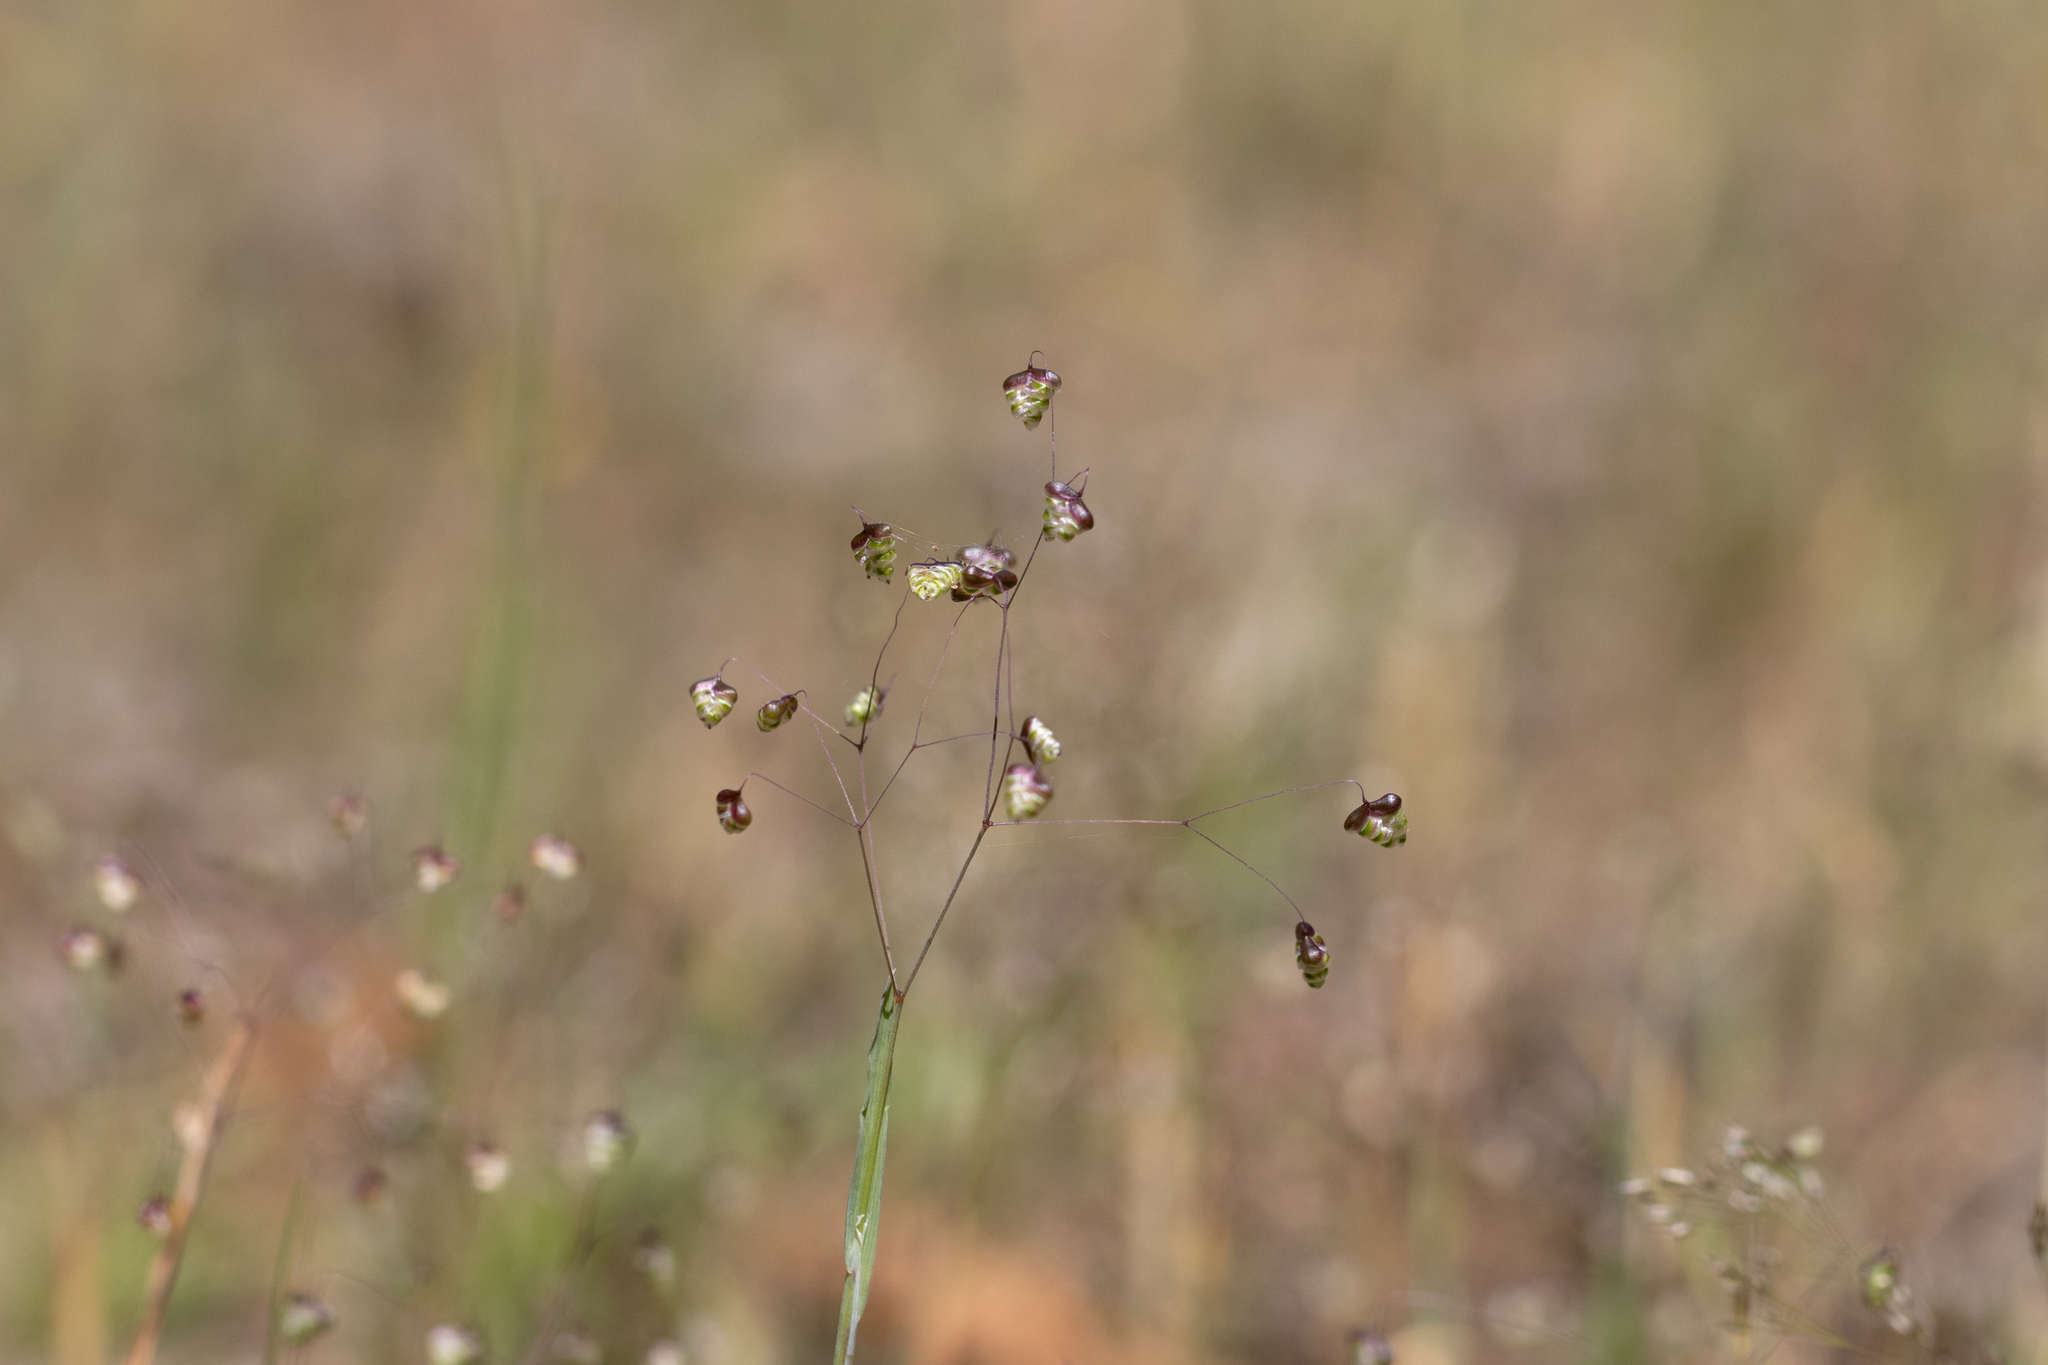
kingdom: Plantae
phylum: Tracheophyta
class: Liliopsida
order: Poales
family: Poaceae
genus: Briza
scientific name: Briza minor
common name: Lesser quaking-grass
